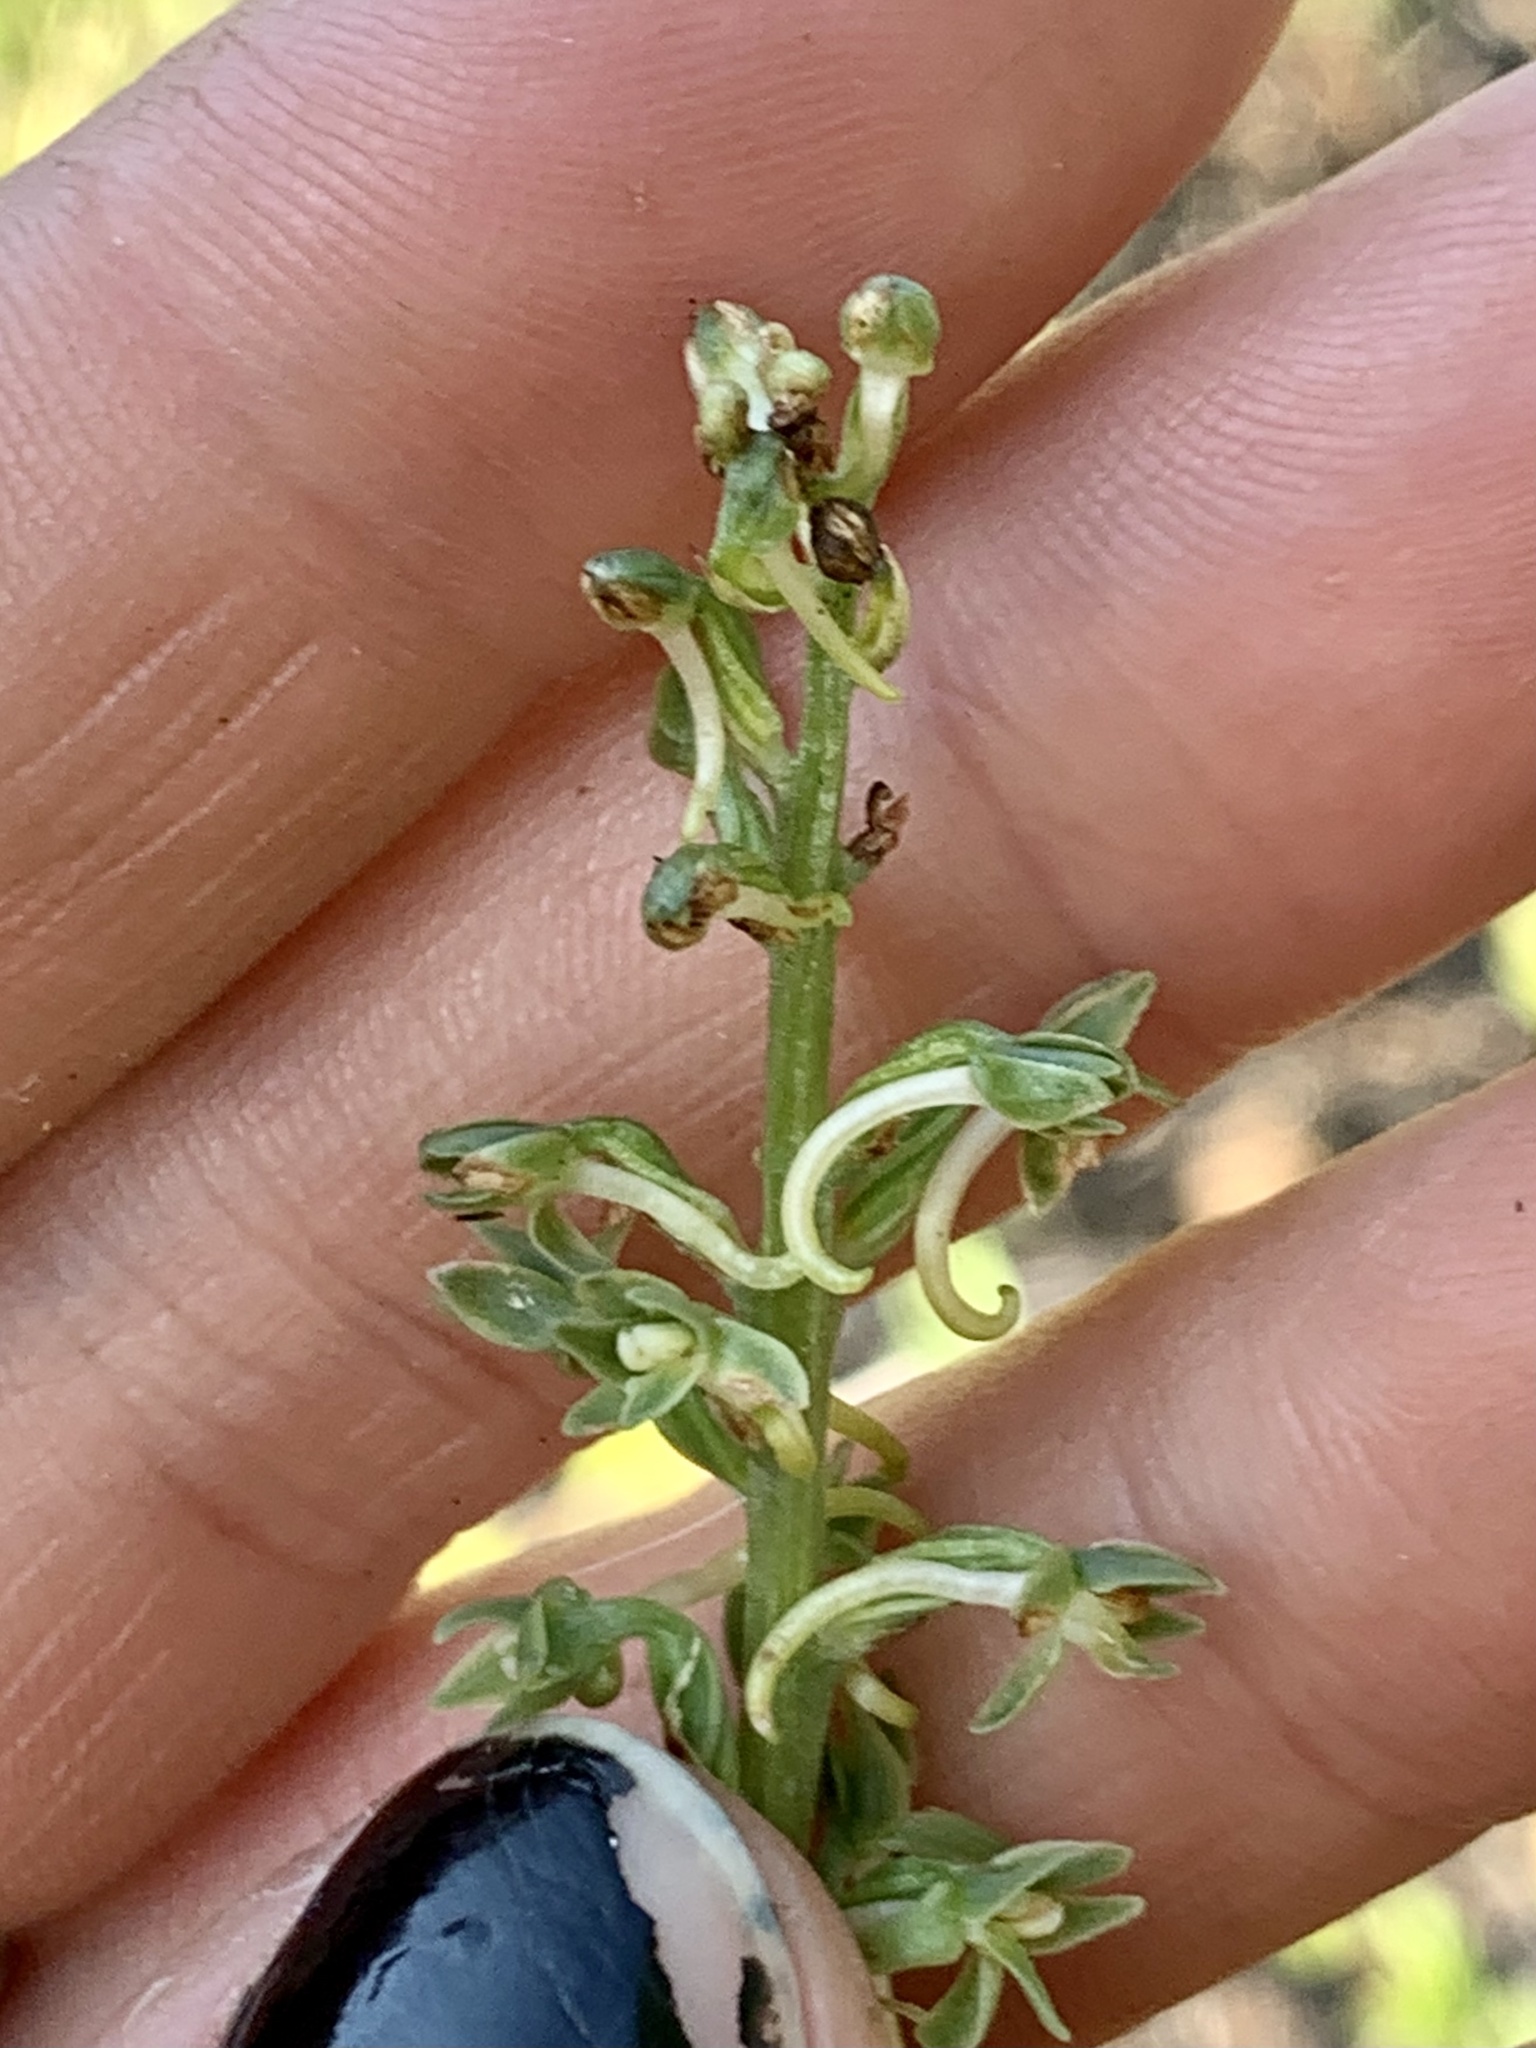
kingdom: Plantae
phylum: Tracheophyta
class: Liliopsida
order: Asparagales
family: Orchidaceae
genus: Platanthera
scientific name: Platanthera elongata
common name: Dense-flowered rein orchid
